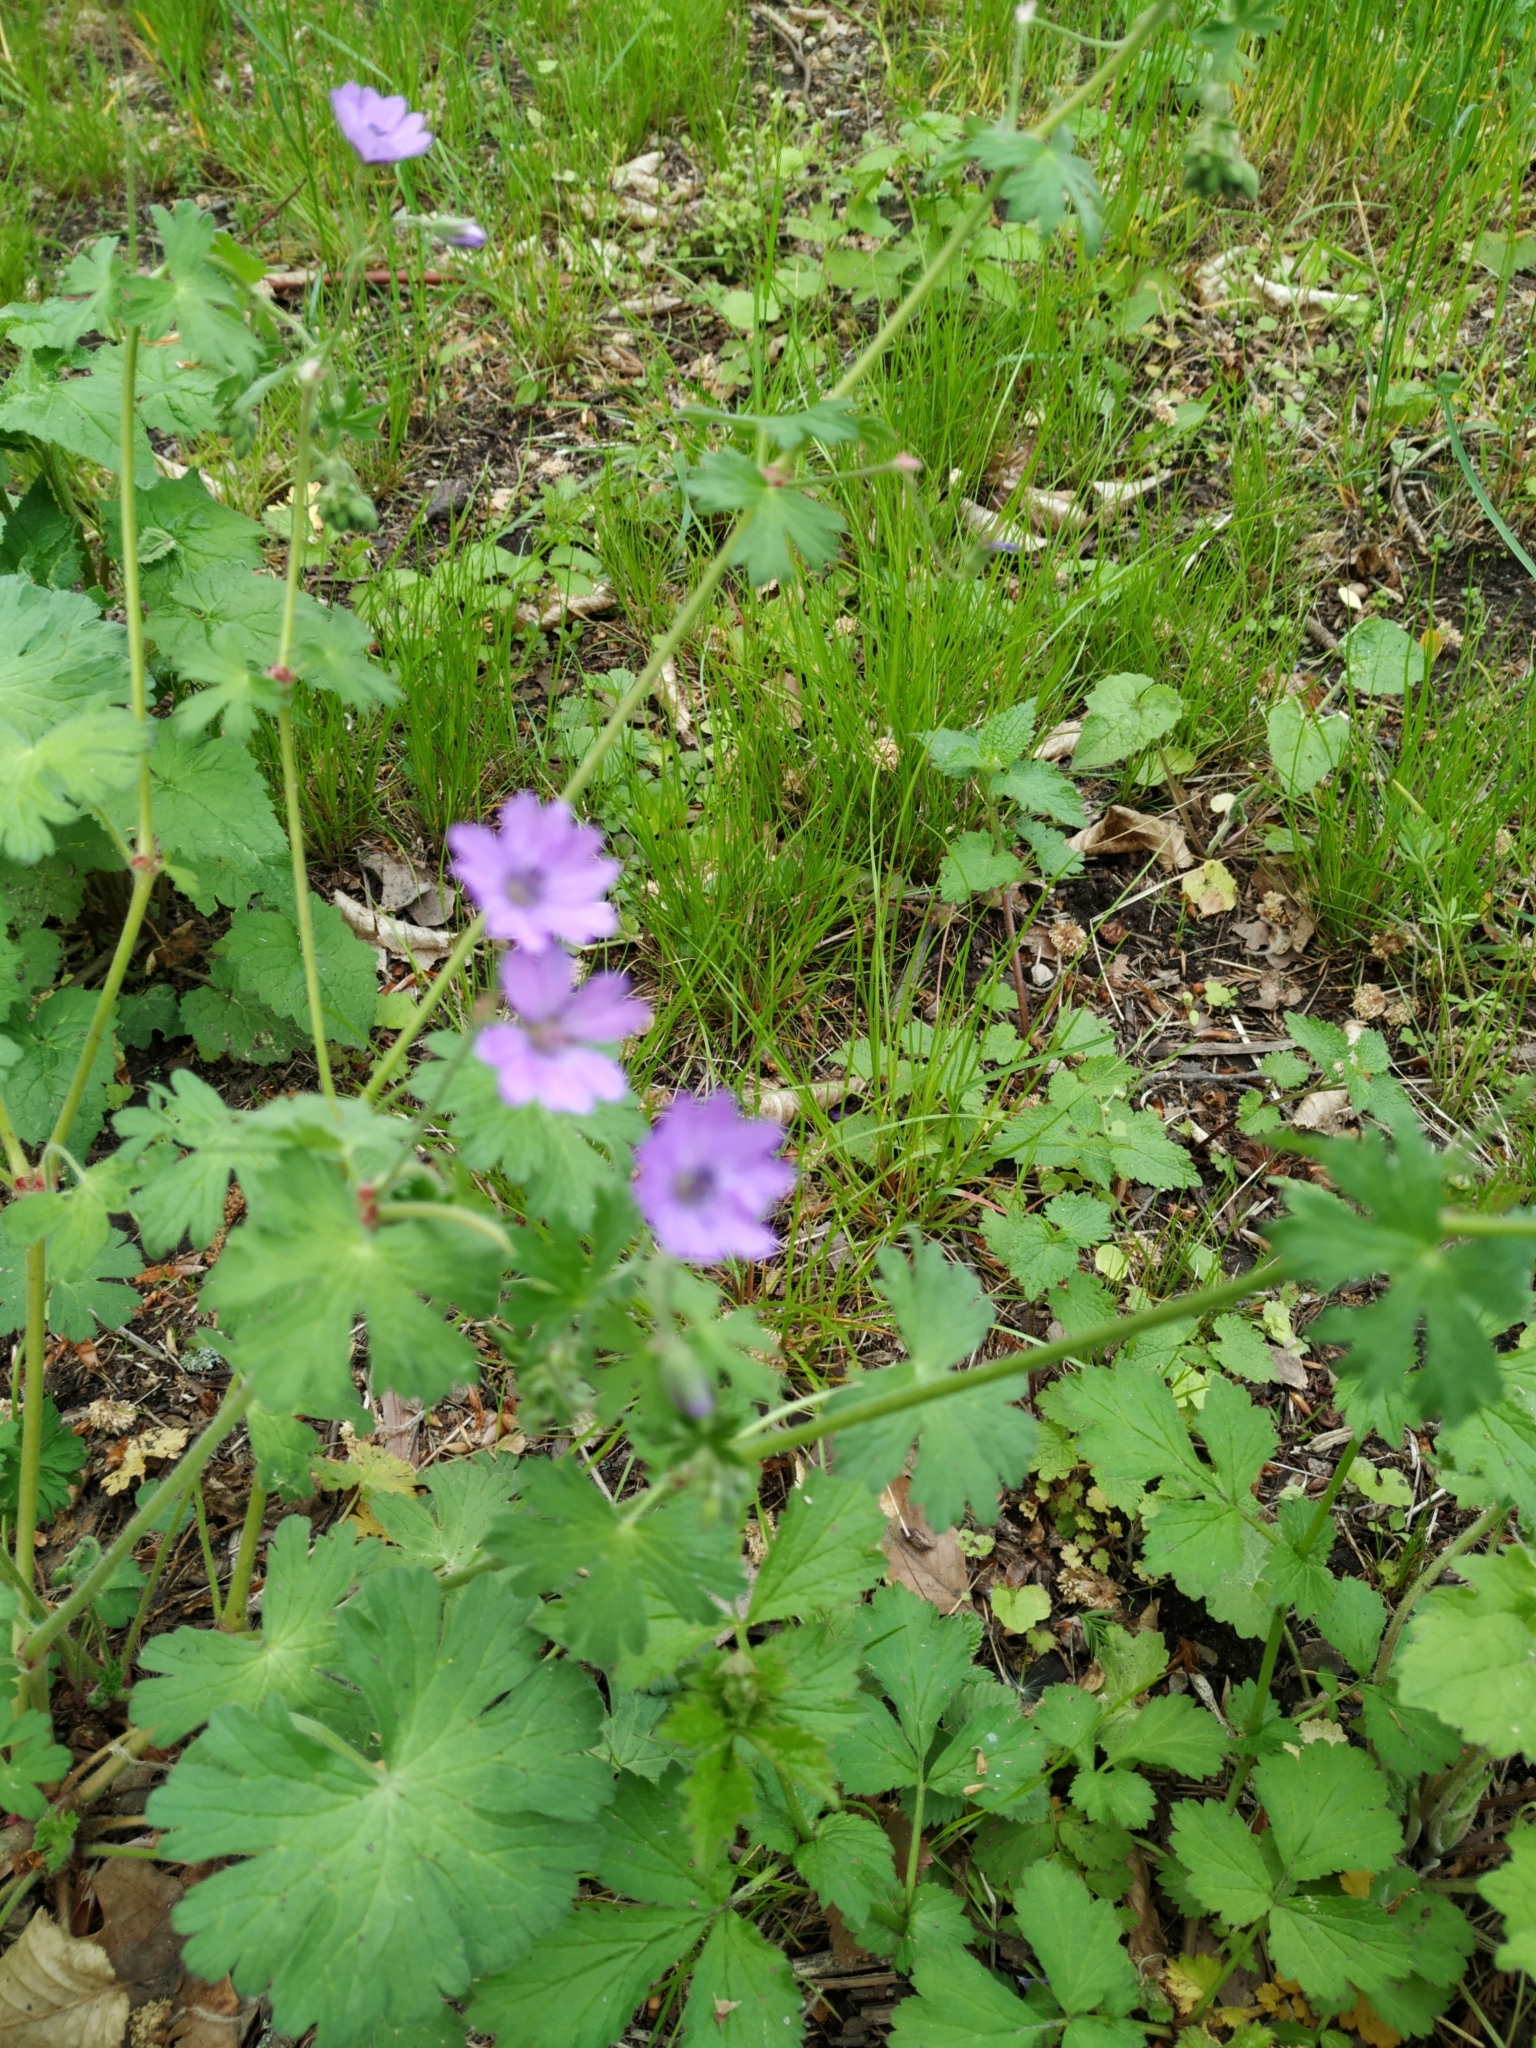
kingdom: Plantae
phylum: Tracheophyta
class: Magnoliopsida
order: Geraniales
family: Geraniaceae
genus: Geranium
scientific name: Geranium pyrenaicum
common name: Hedgerow crane's-bill
